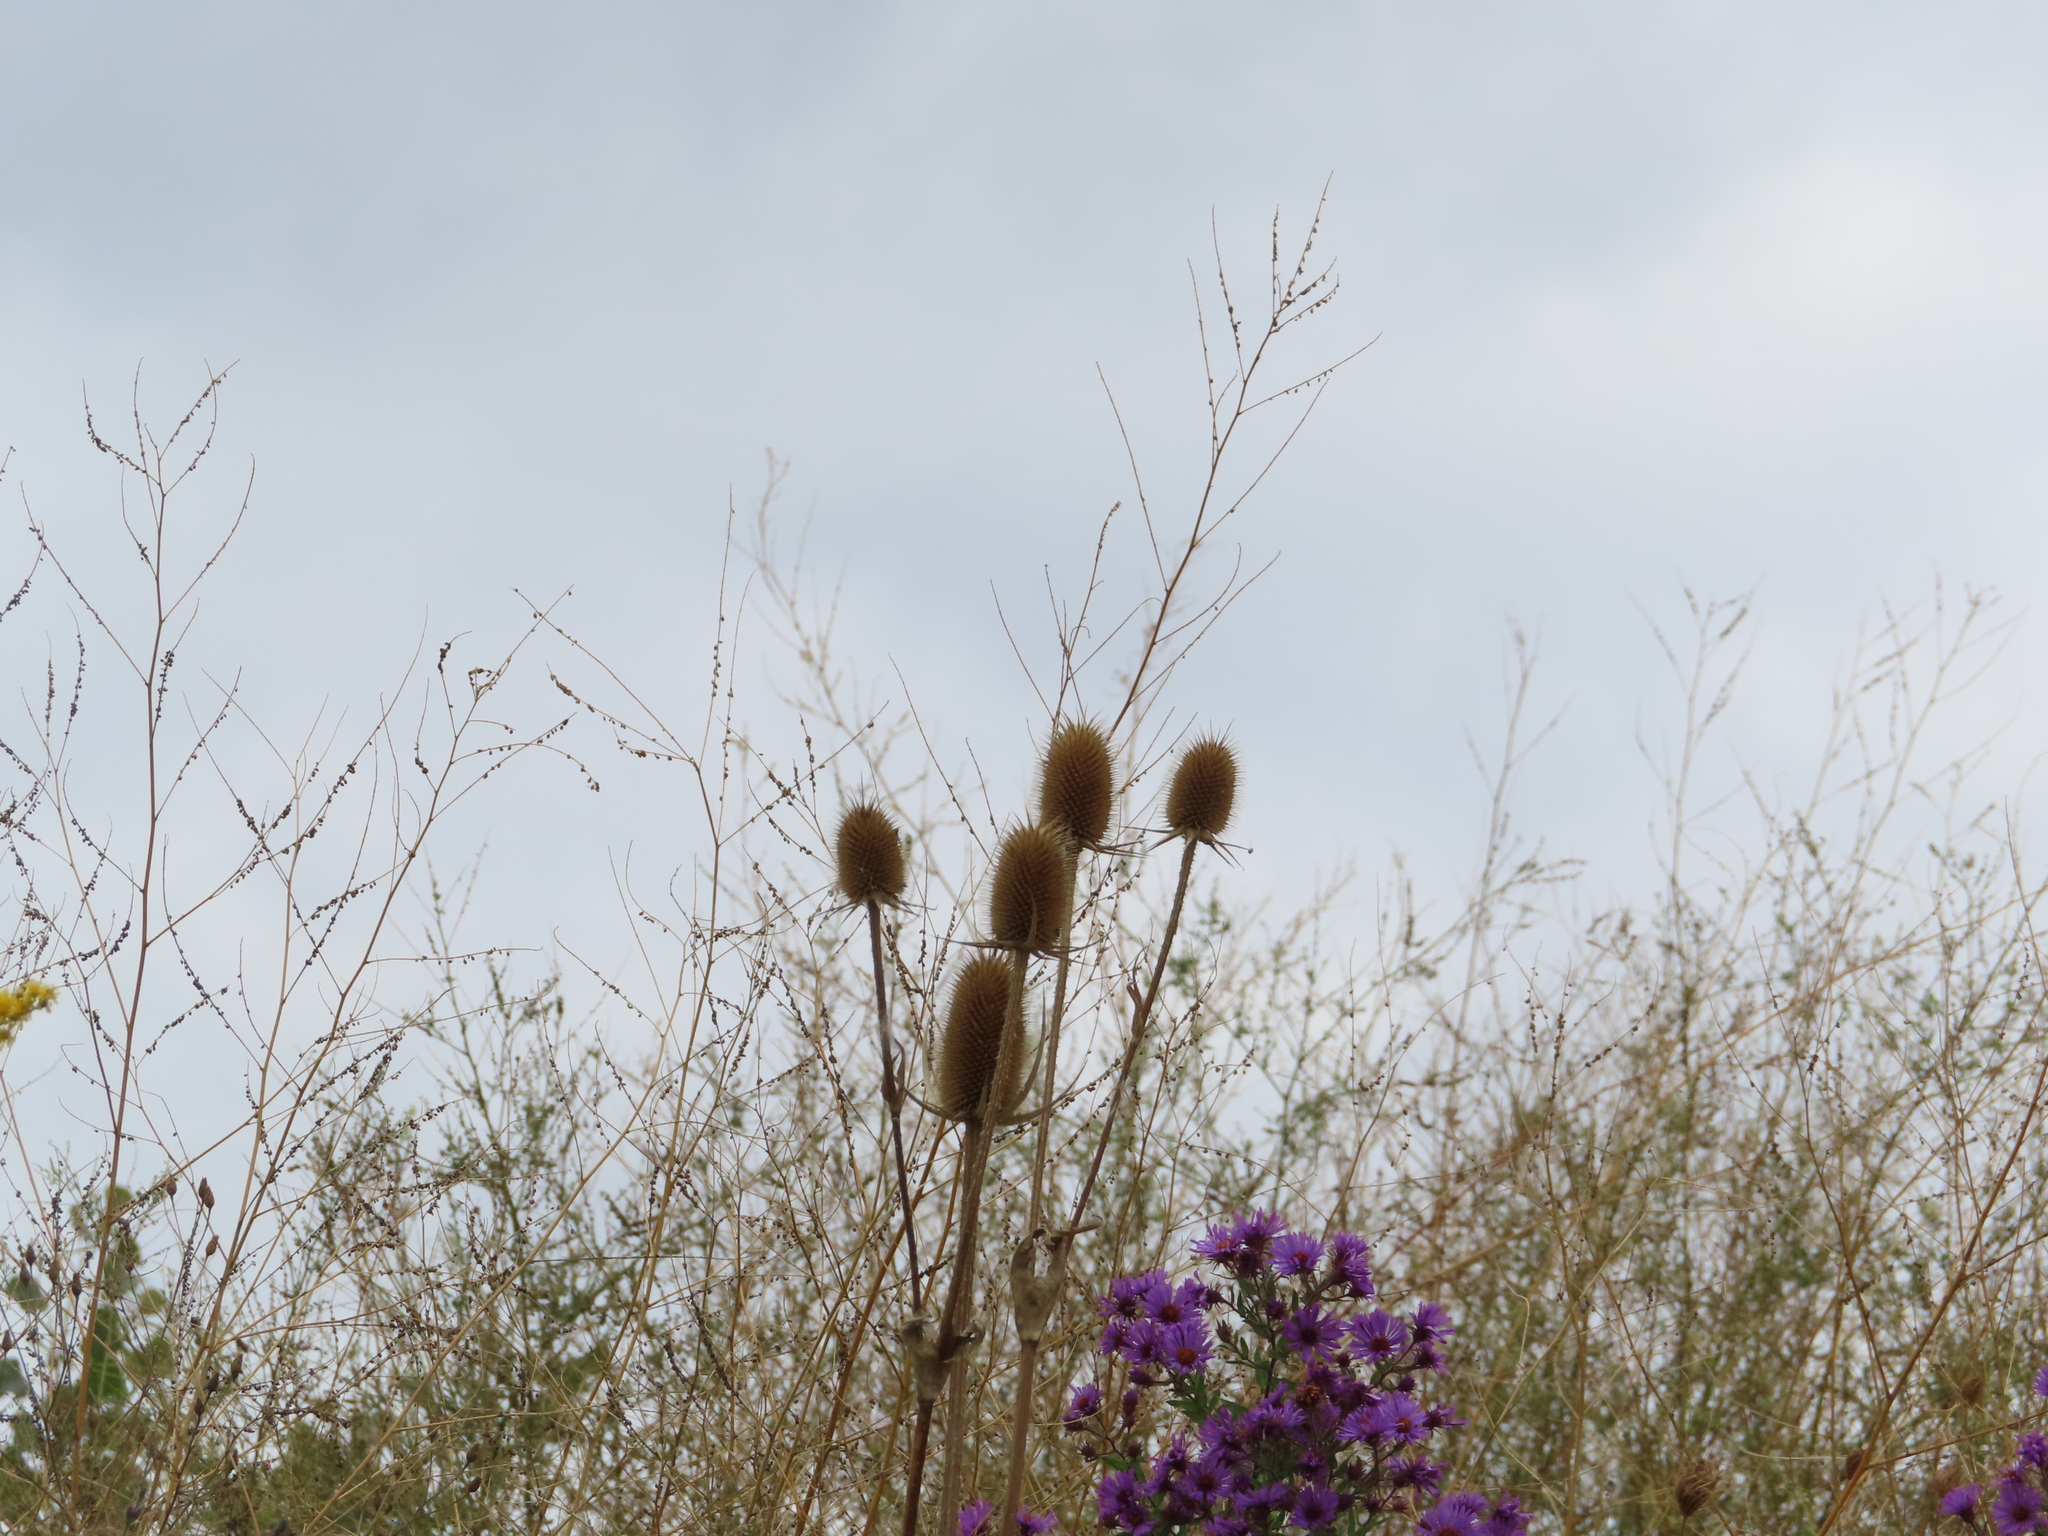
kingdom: Plantae
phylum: Tracheophyta
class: Magnoliopsida
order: Dipsacales
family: Caprifoliaceae
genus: Dipsacus
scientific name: Dipsacus laciniatus
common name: Cut-leaved teasel
